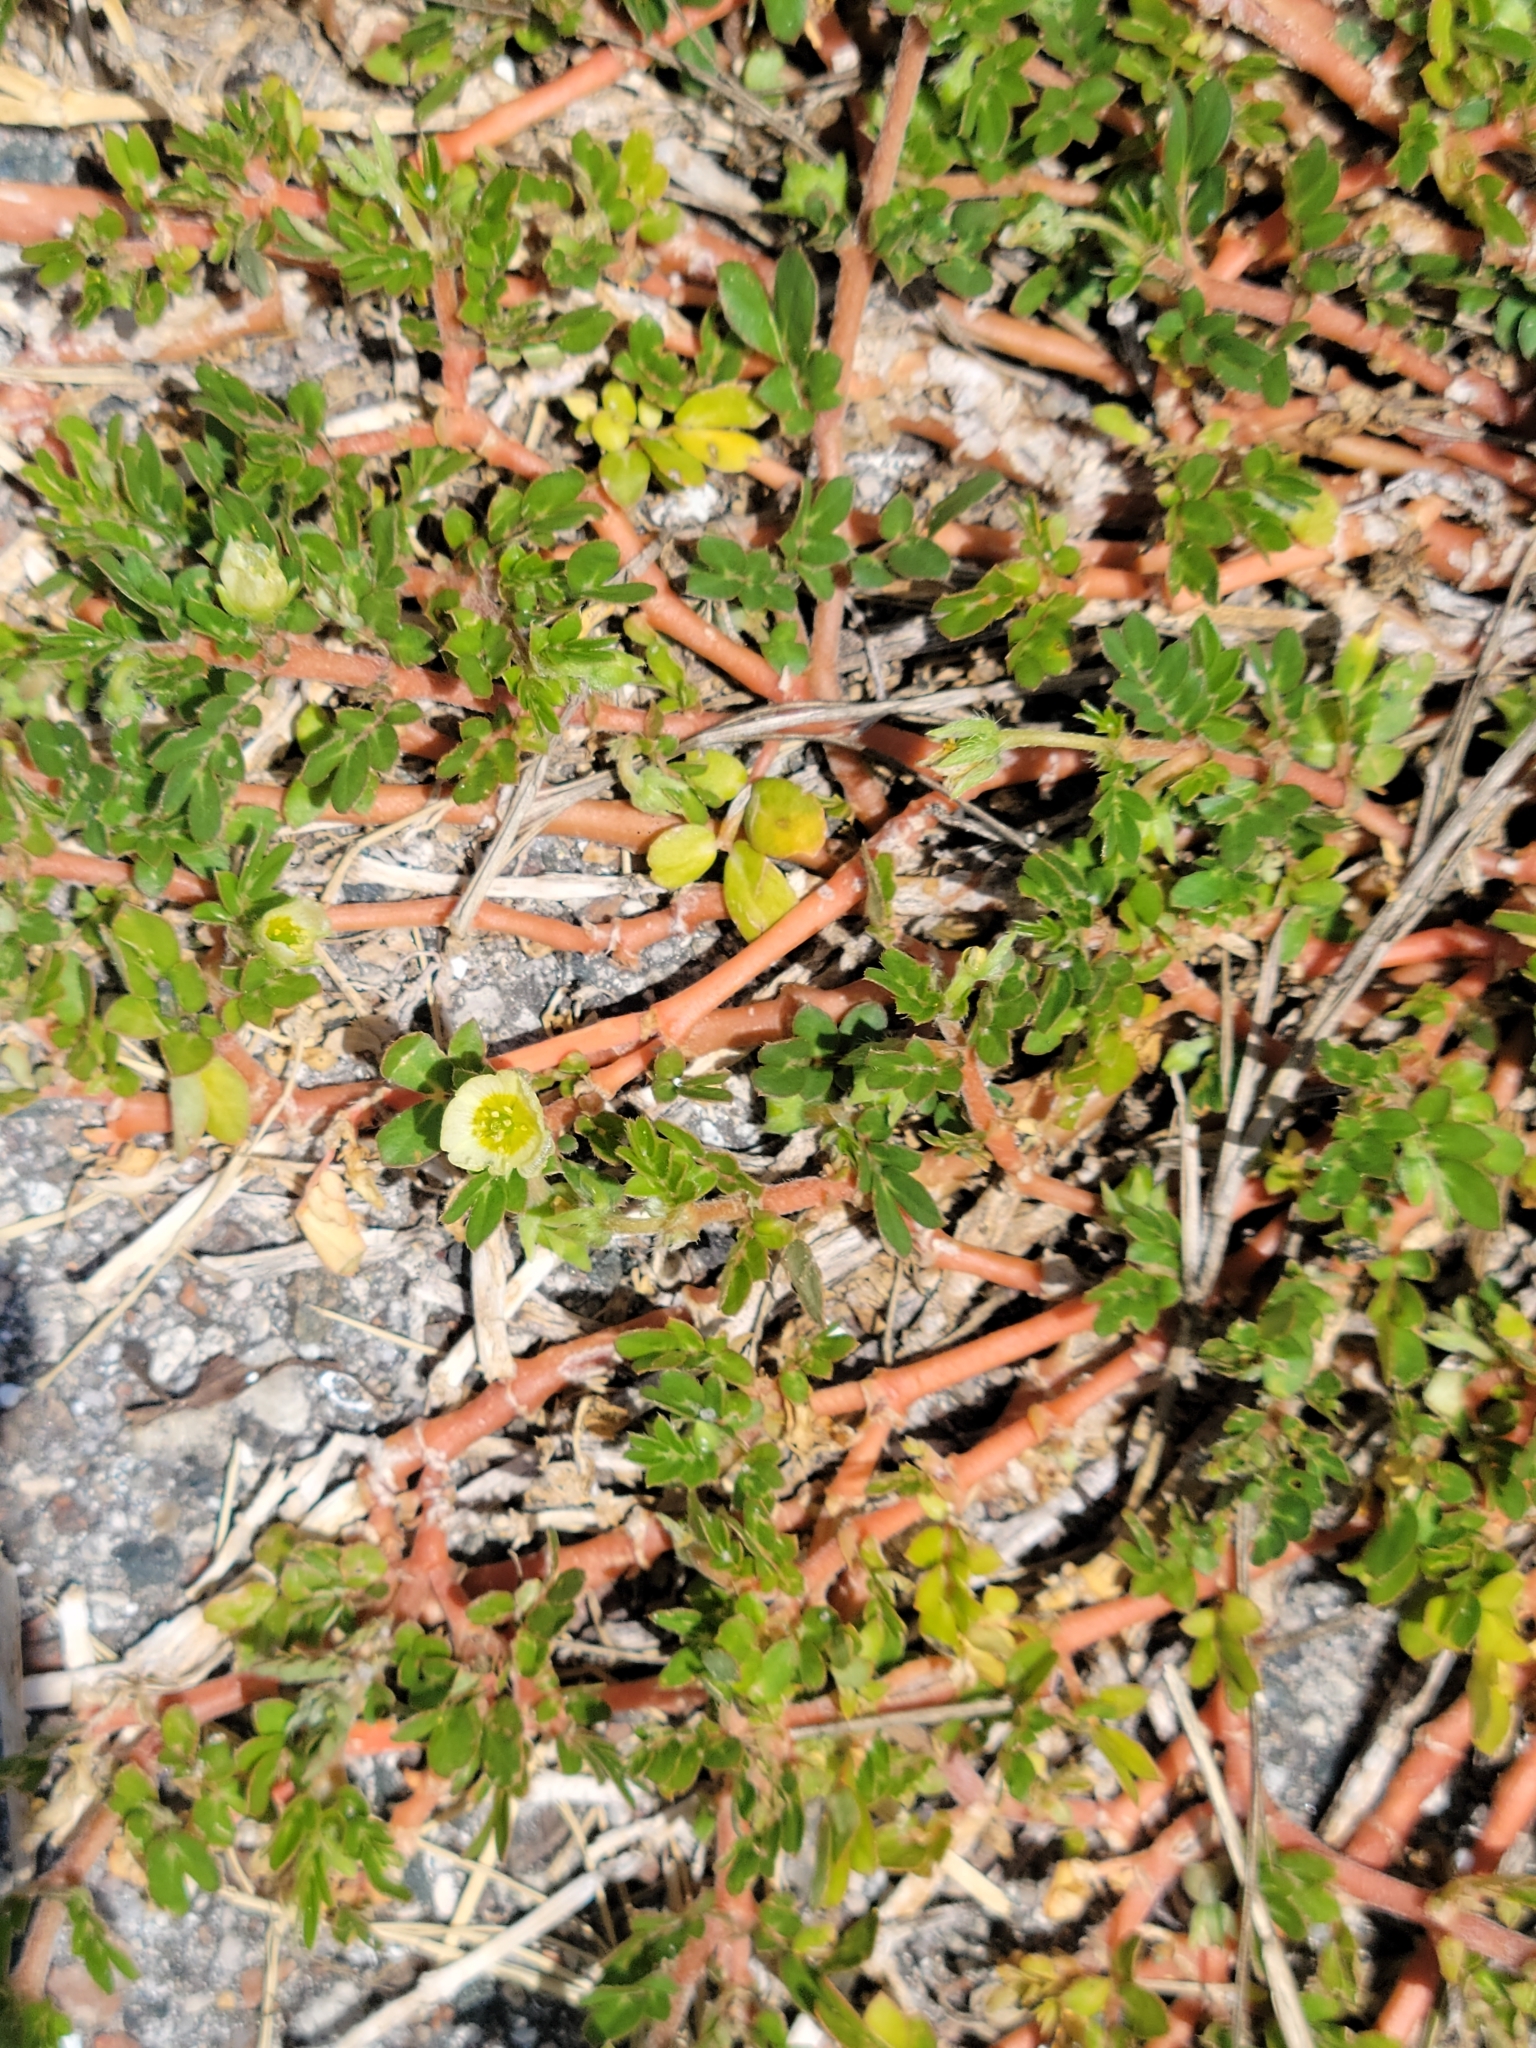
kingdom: Plantae
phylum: Tracheophyta
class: Magnoliopsida
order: Zygophyllales
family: Zygophyllaceae
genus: Kallstroemia
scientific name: Kallstroemia maxima
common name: Big caltropa
